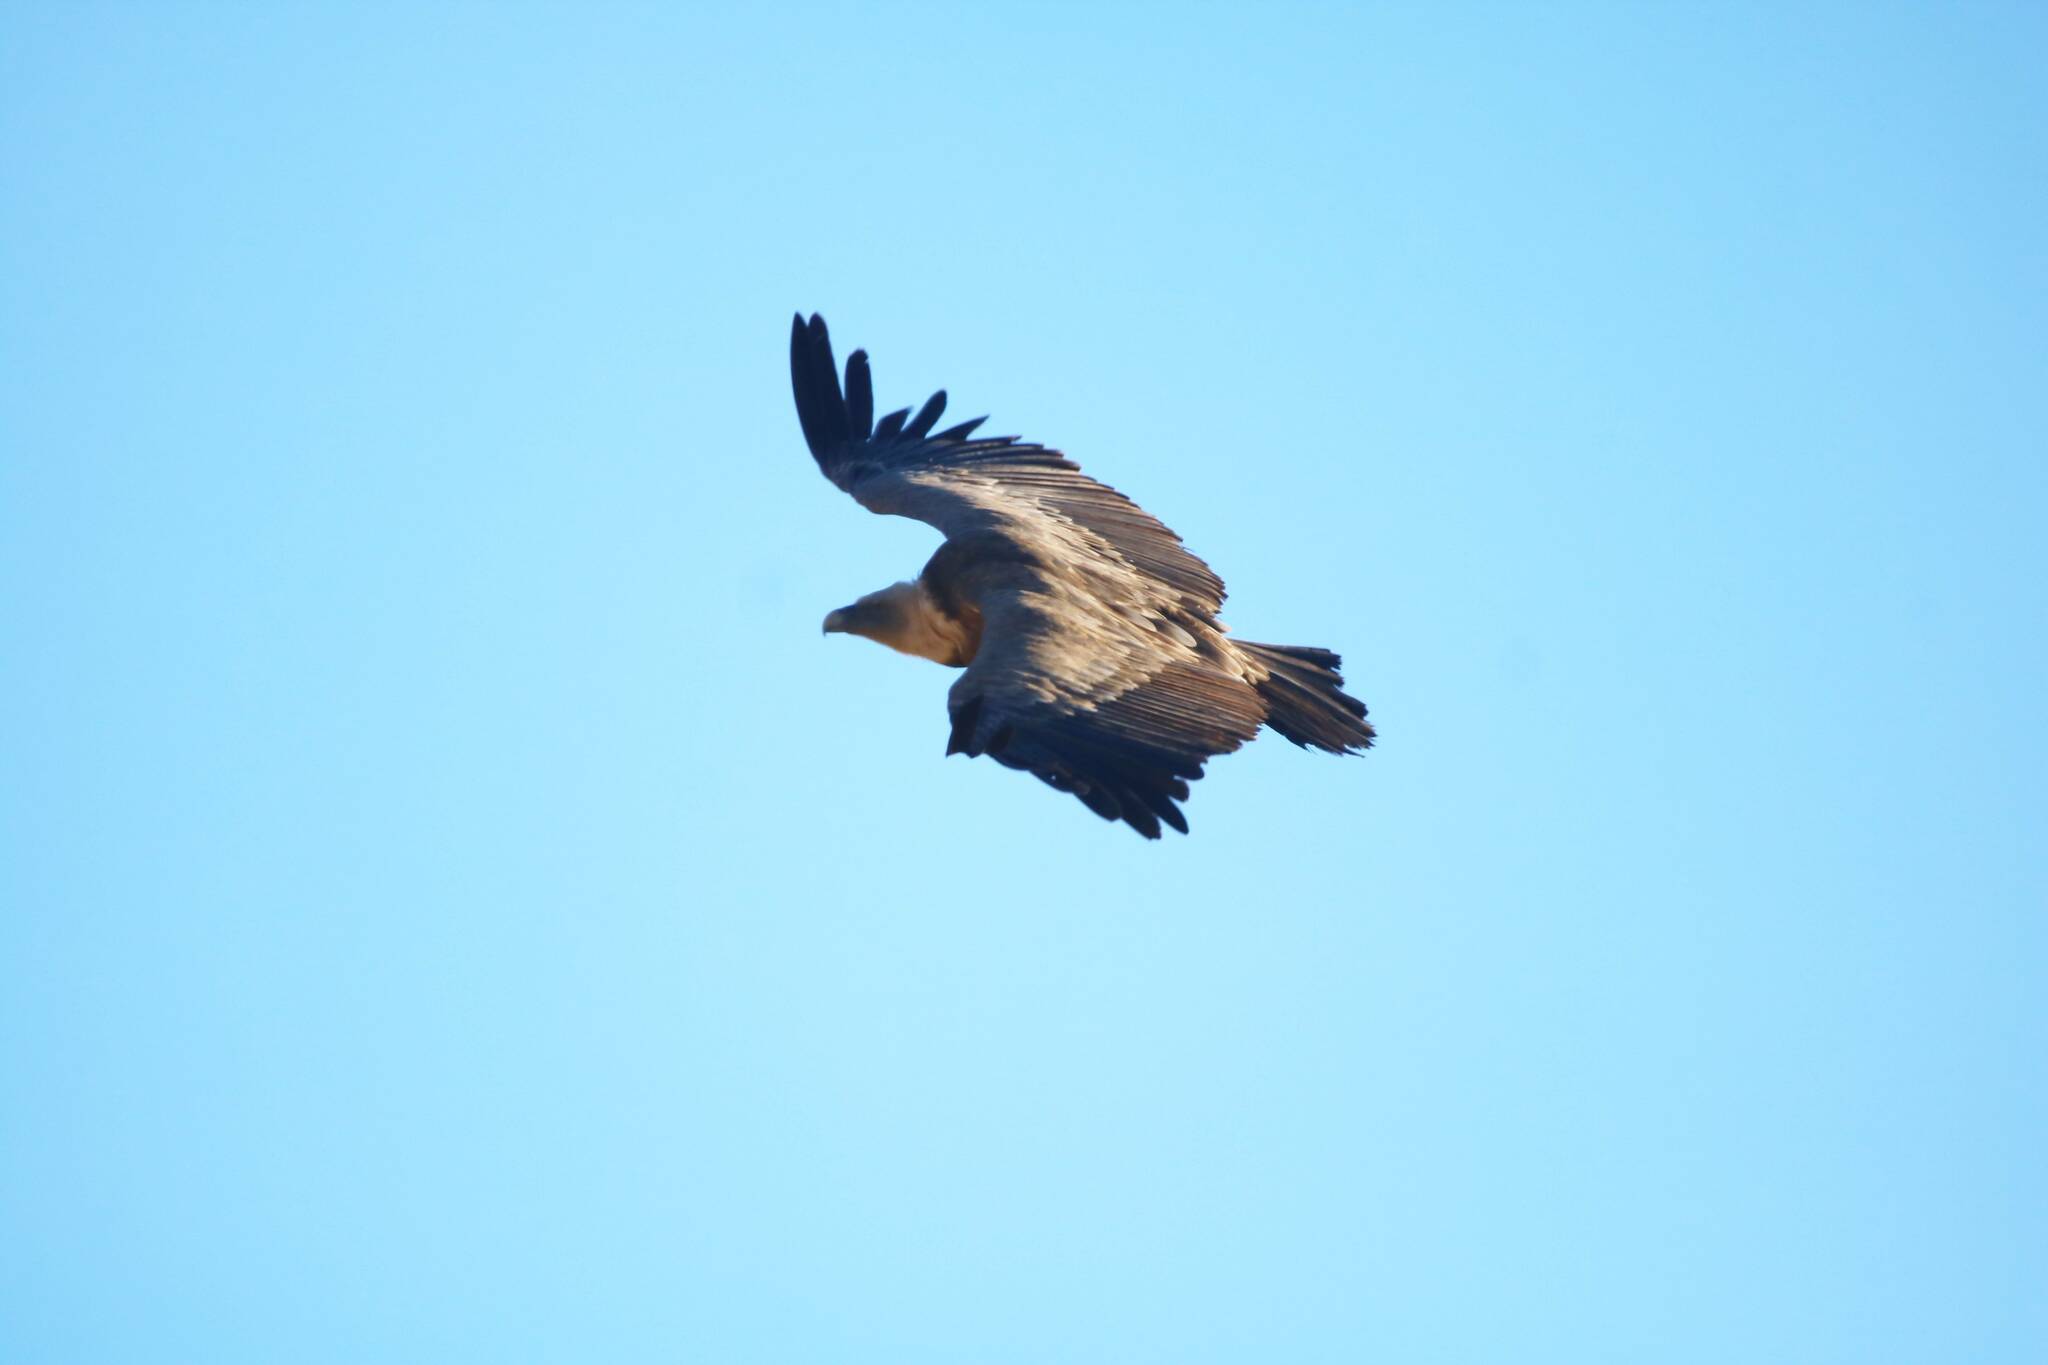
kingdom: Animalia
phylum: Chordata
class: Aves
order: Accipitriformes
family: Accipitridae
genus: Gyps
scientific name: Gyps fulvus
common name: Griffon vulture
